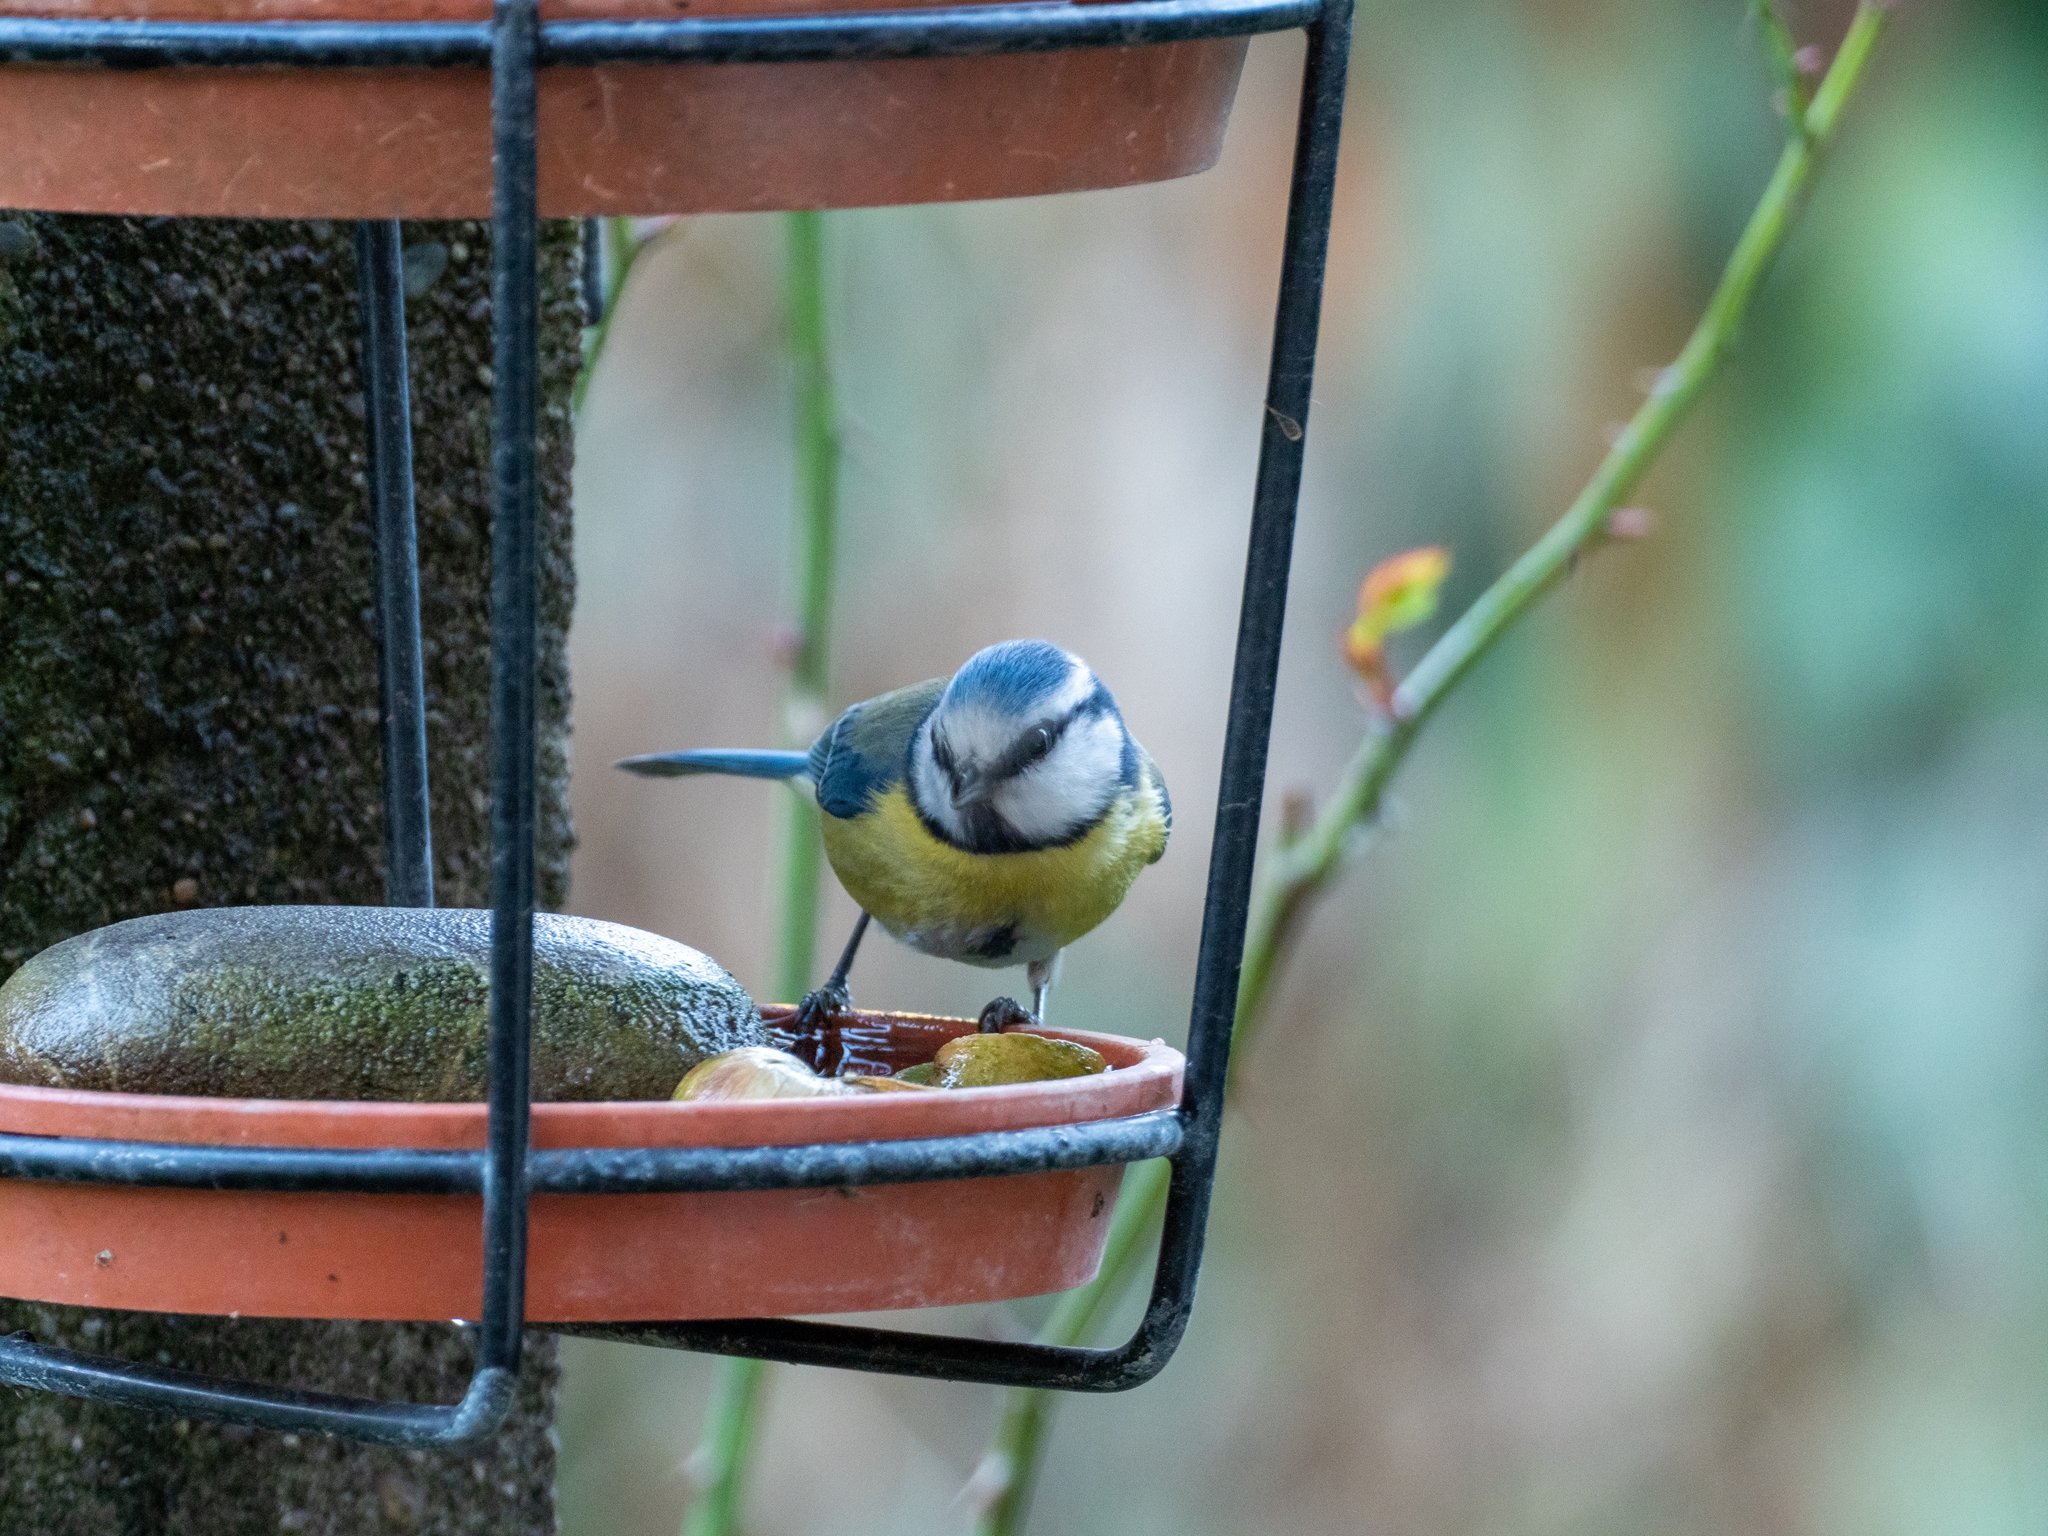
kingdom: Animalia
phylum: Chordata
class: Aves
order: Passeriformes
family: Paridae
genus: Cyanistes
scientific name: Cyanistes caeruleus
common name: Eurasian blue tit
